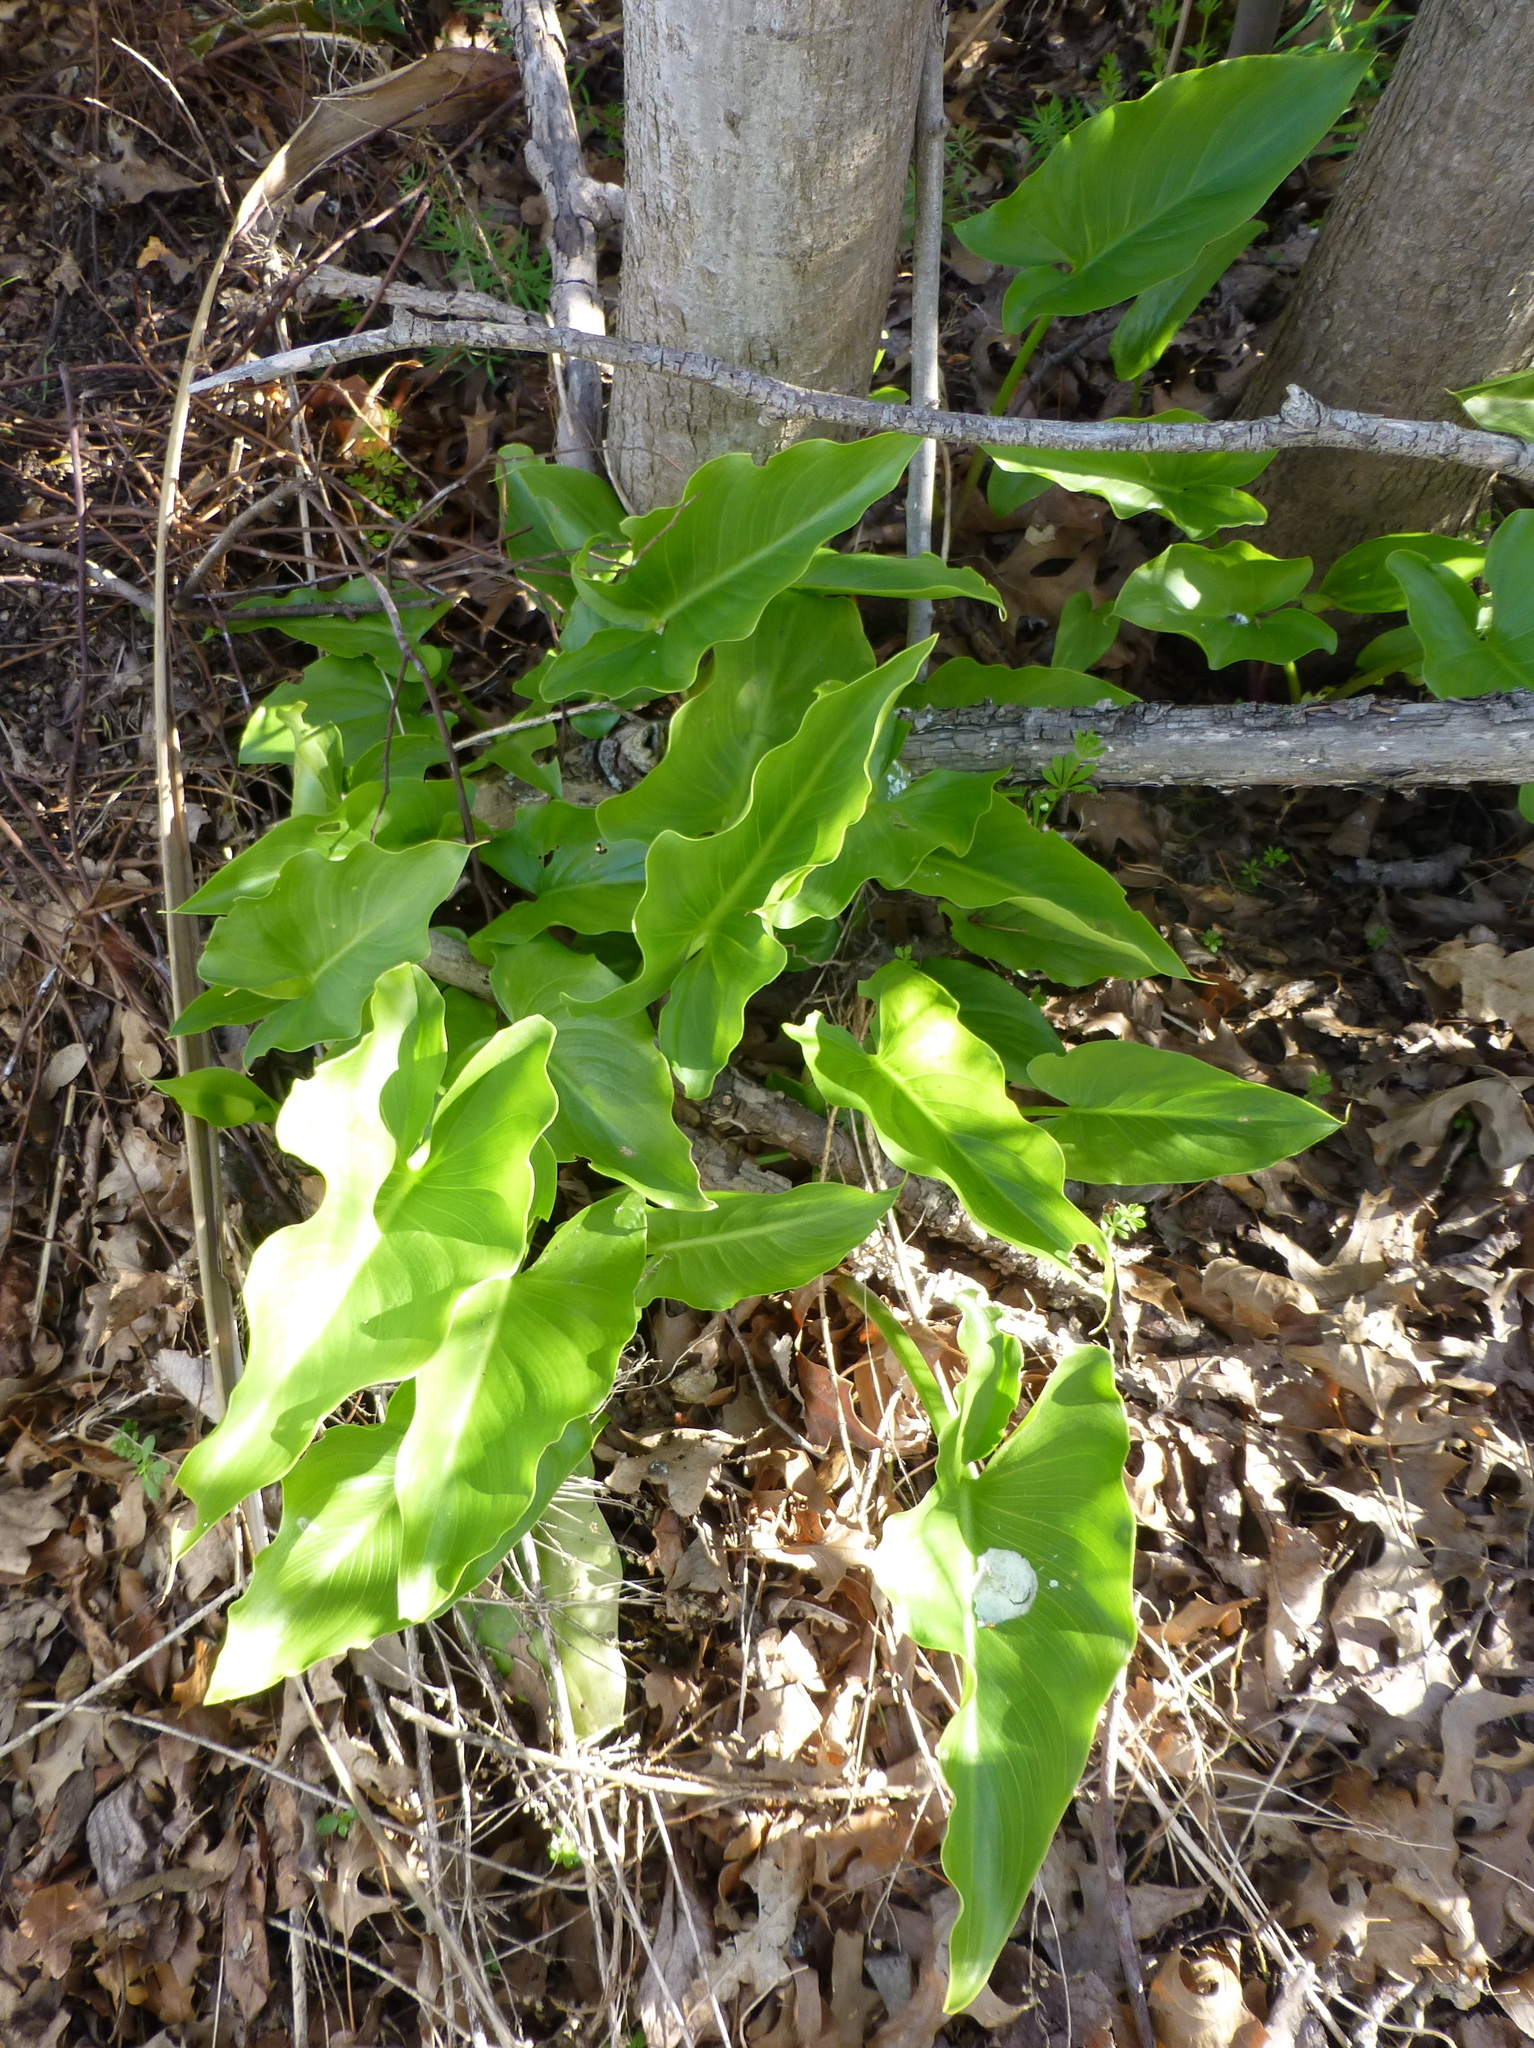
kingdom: Plantae
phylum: Tracheophyta
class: Liliopsida
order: Alismatales
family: Araceae
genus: Zantedeschia
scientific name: Zantedeschia aethiopica
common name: Altar-lily
